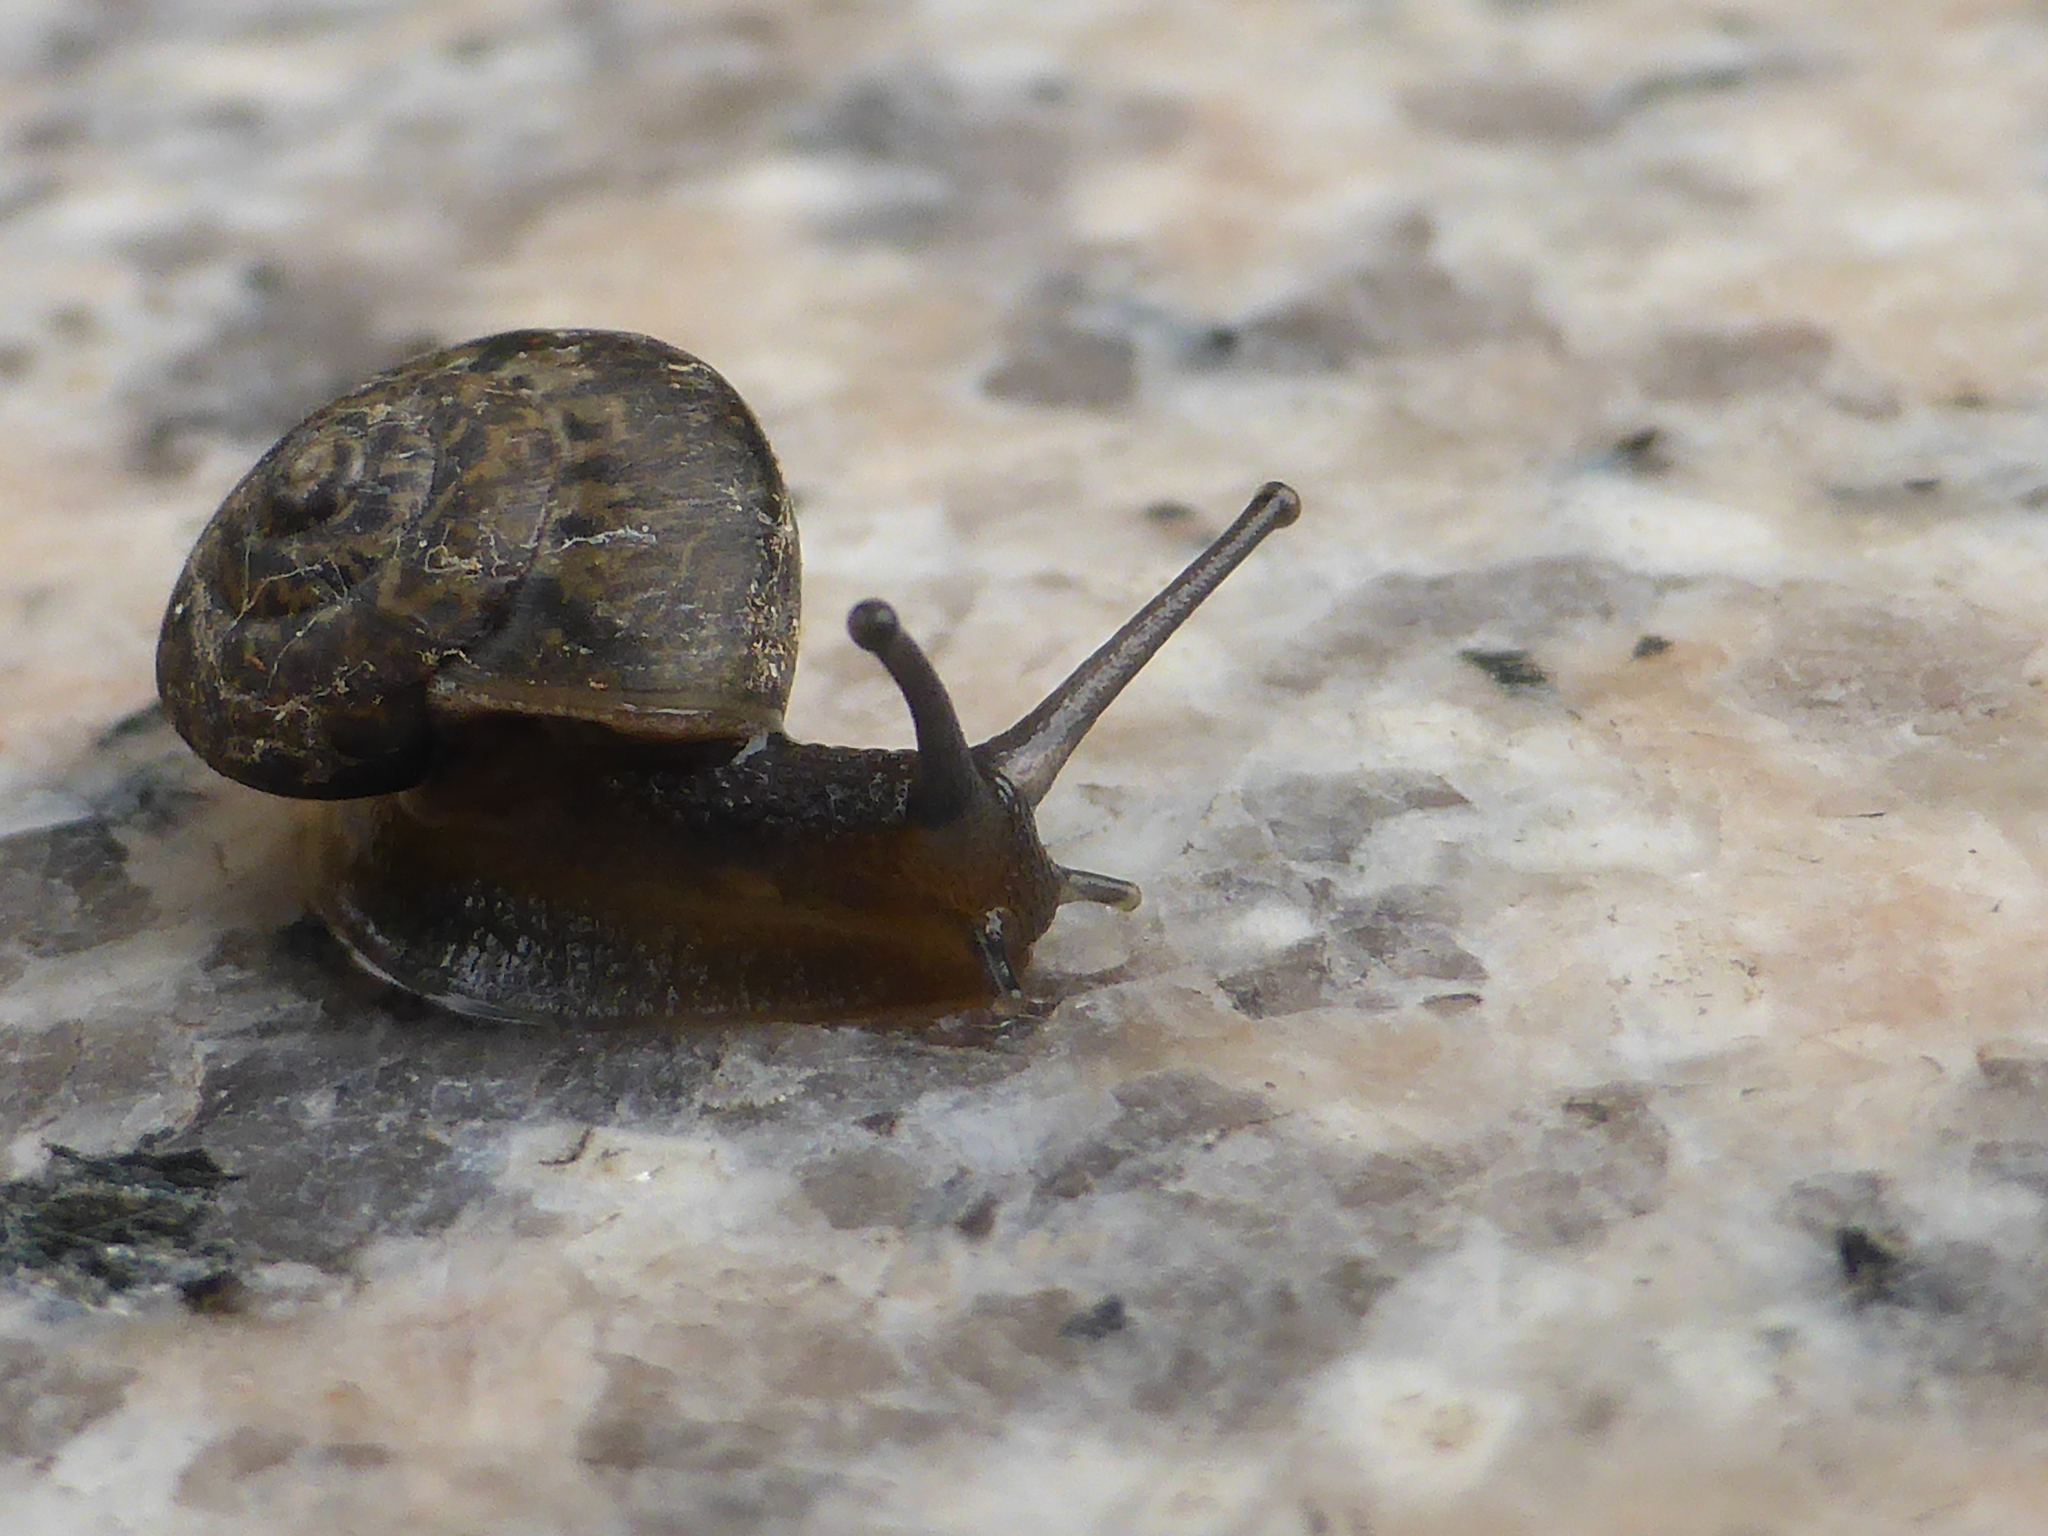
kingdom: Animalia
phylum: Mollusca
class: Gastropoda
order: Stylommatophora
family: Camaenidae
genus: Bradybaena
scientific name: Bradybaena similaris
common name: Asian trampsnail
